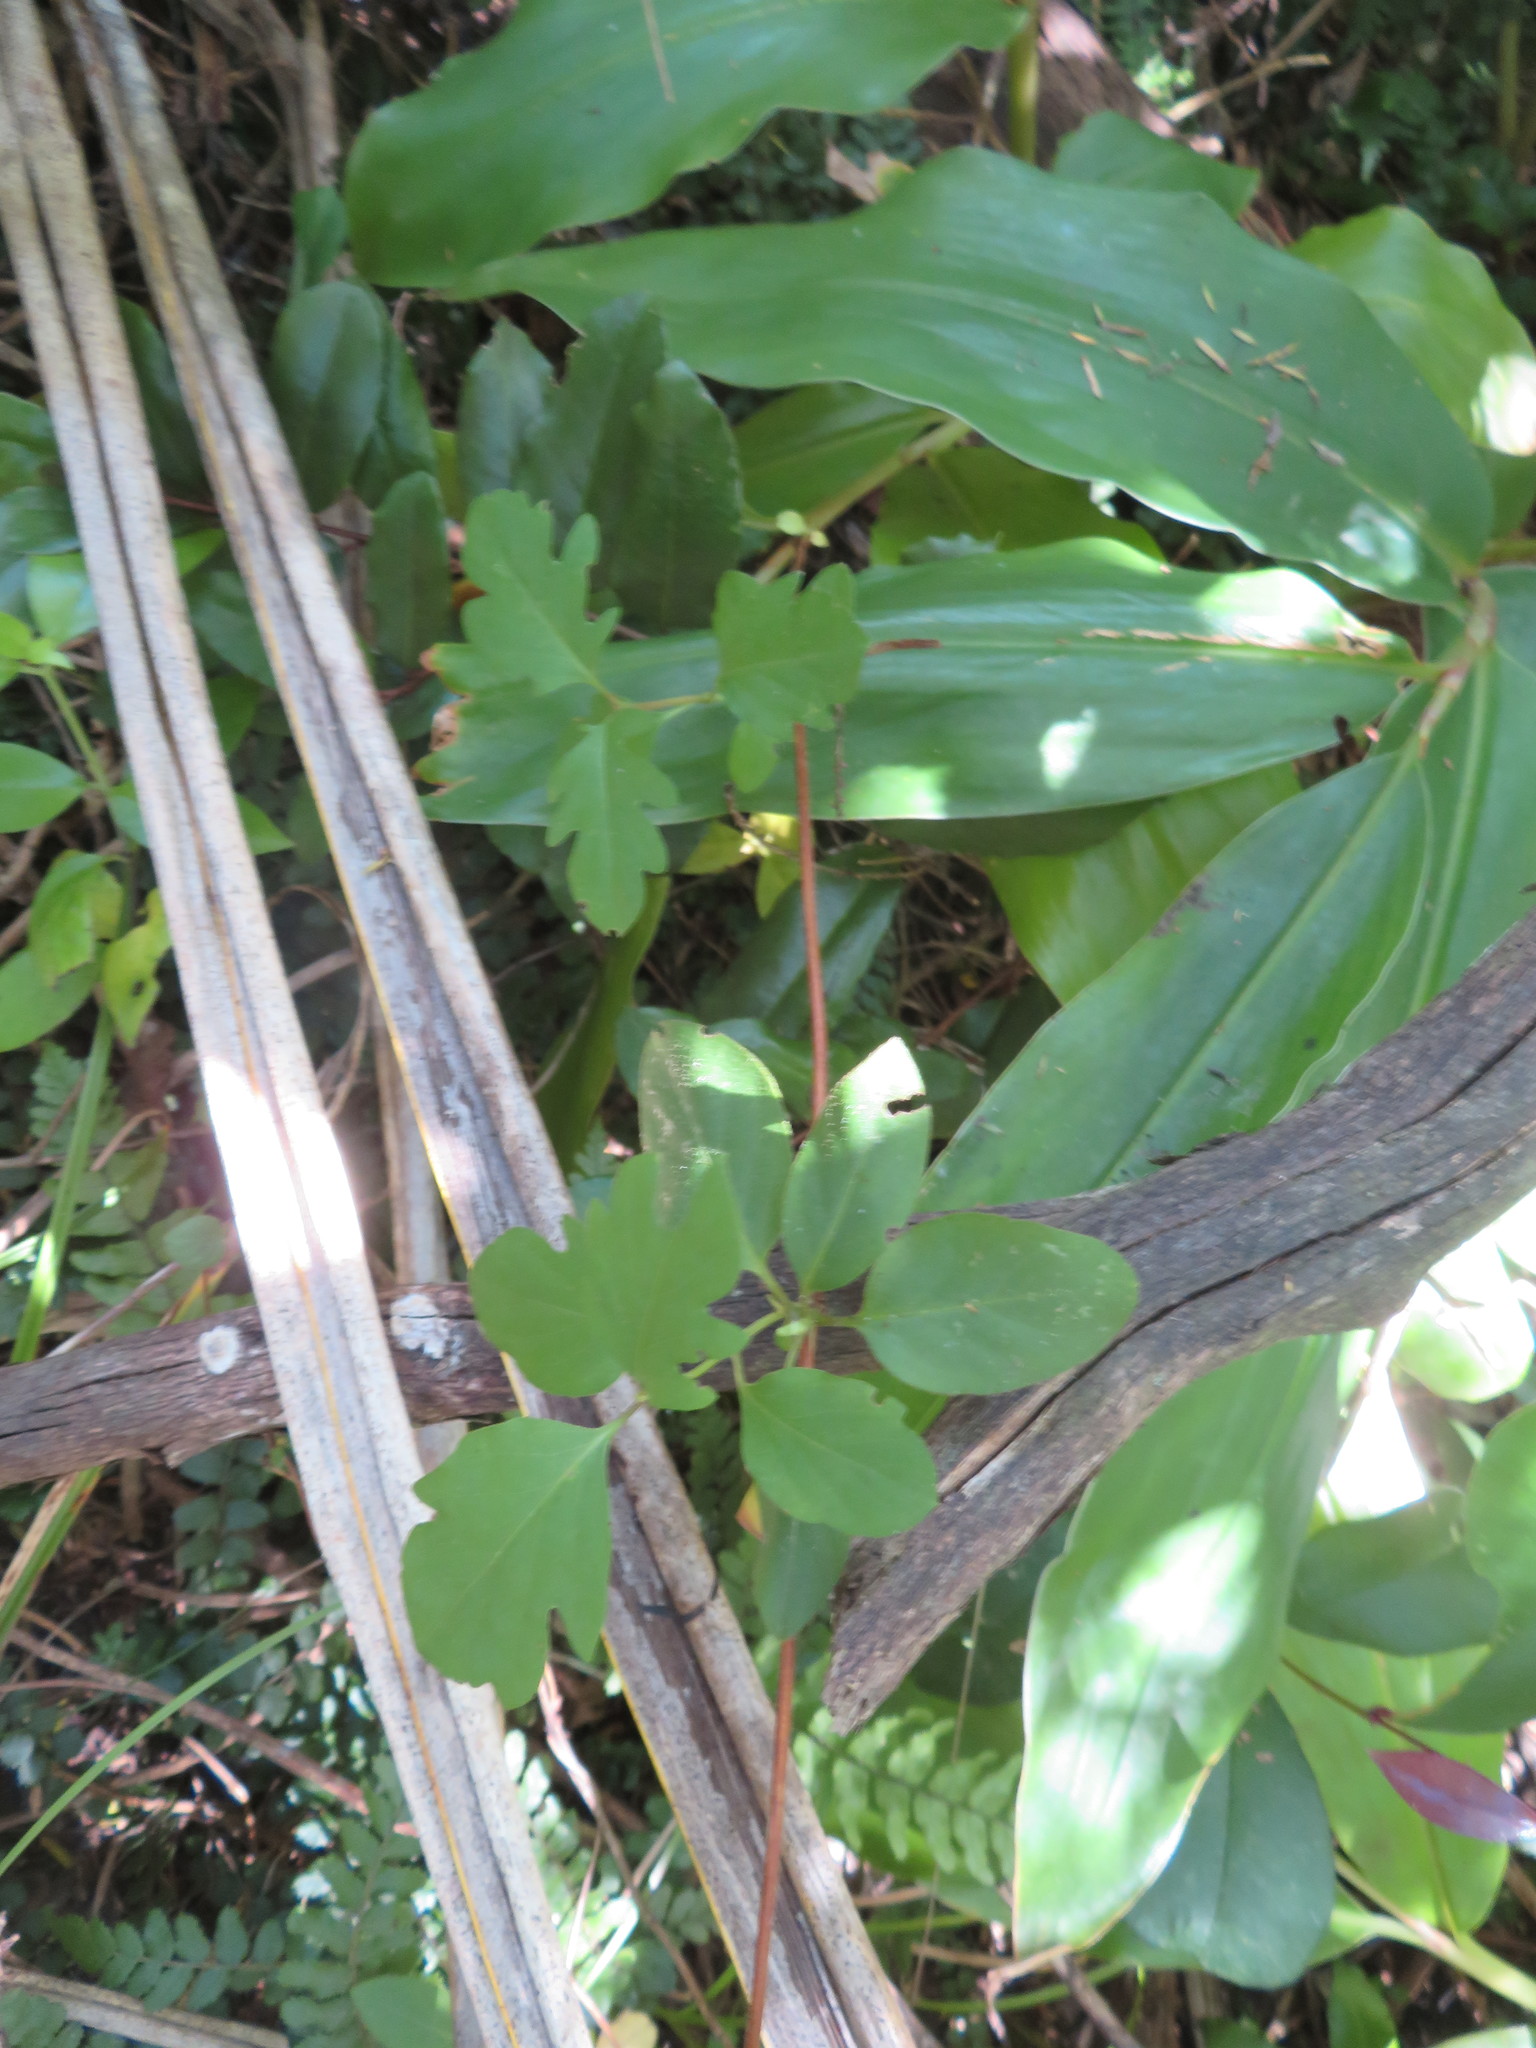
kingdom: Plantae
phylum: Tracheophyta
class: Magnoliopsida
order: Dipsacales
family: Caprifoliaceae
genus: Lonicera
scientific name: Lonicera japonica
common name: Japanese honeysuckle
